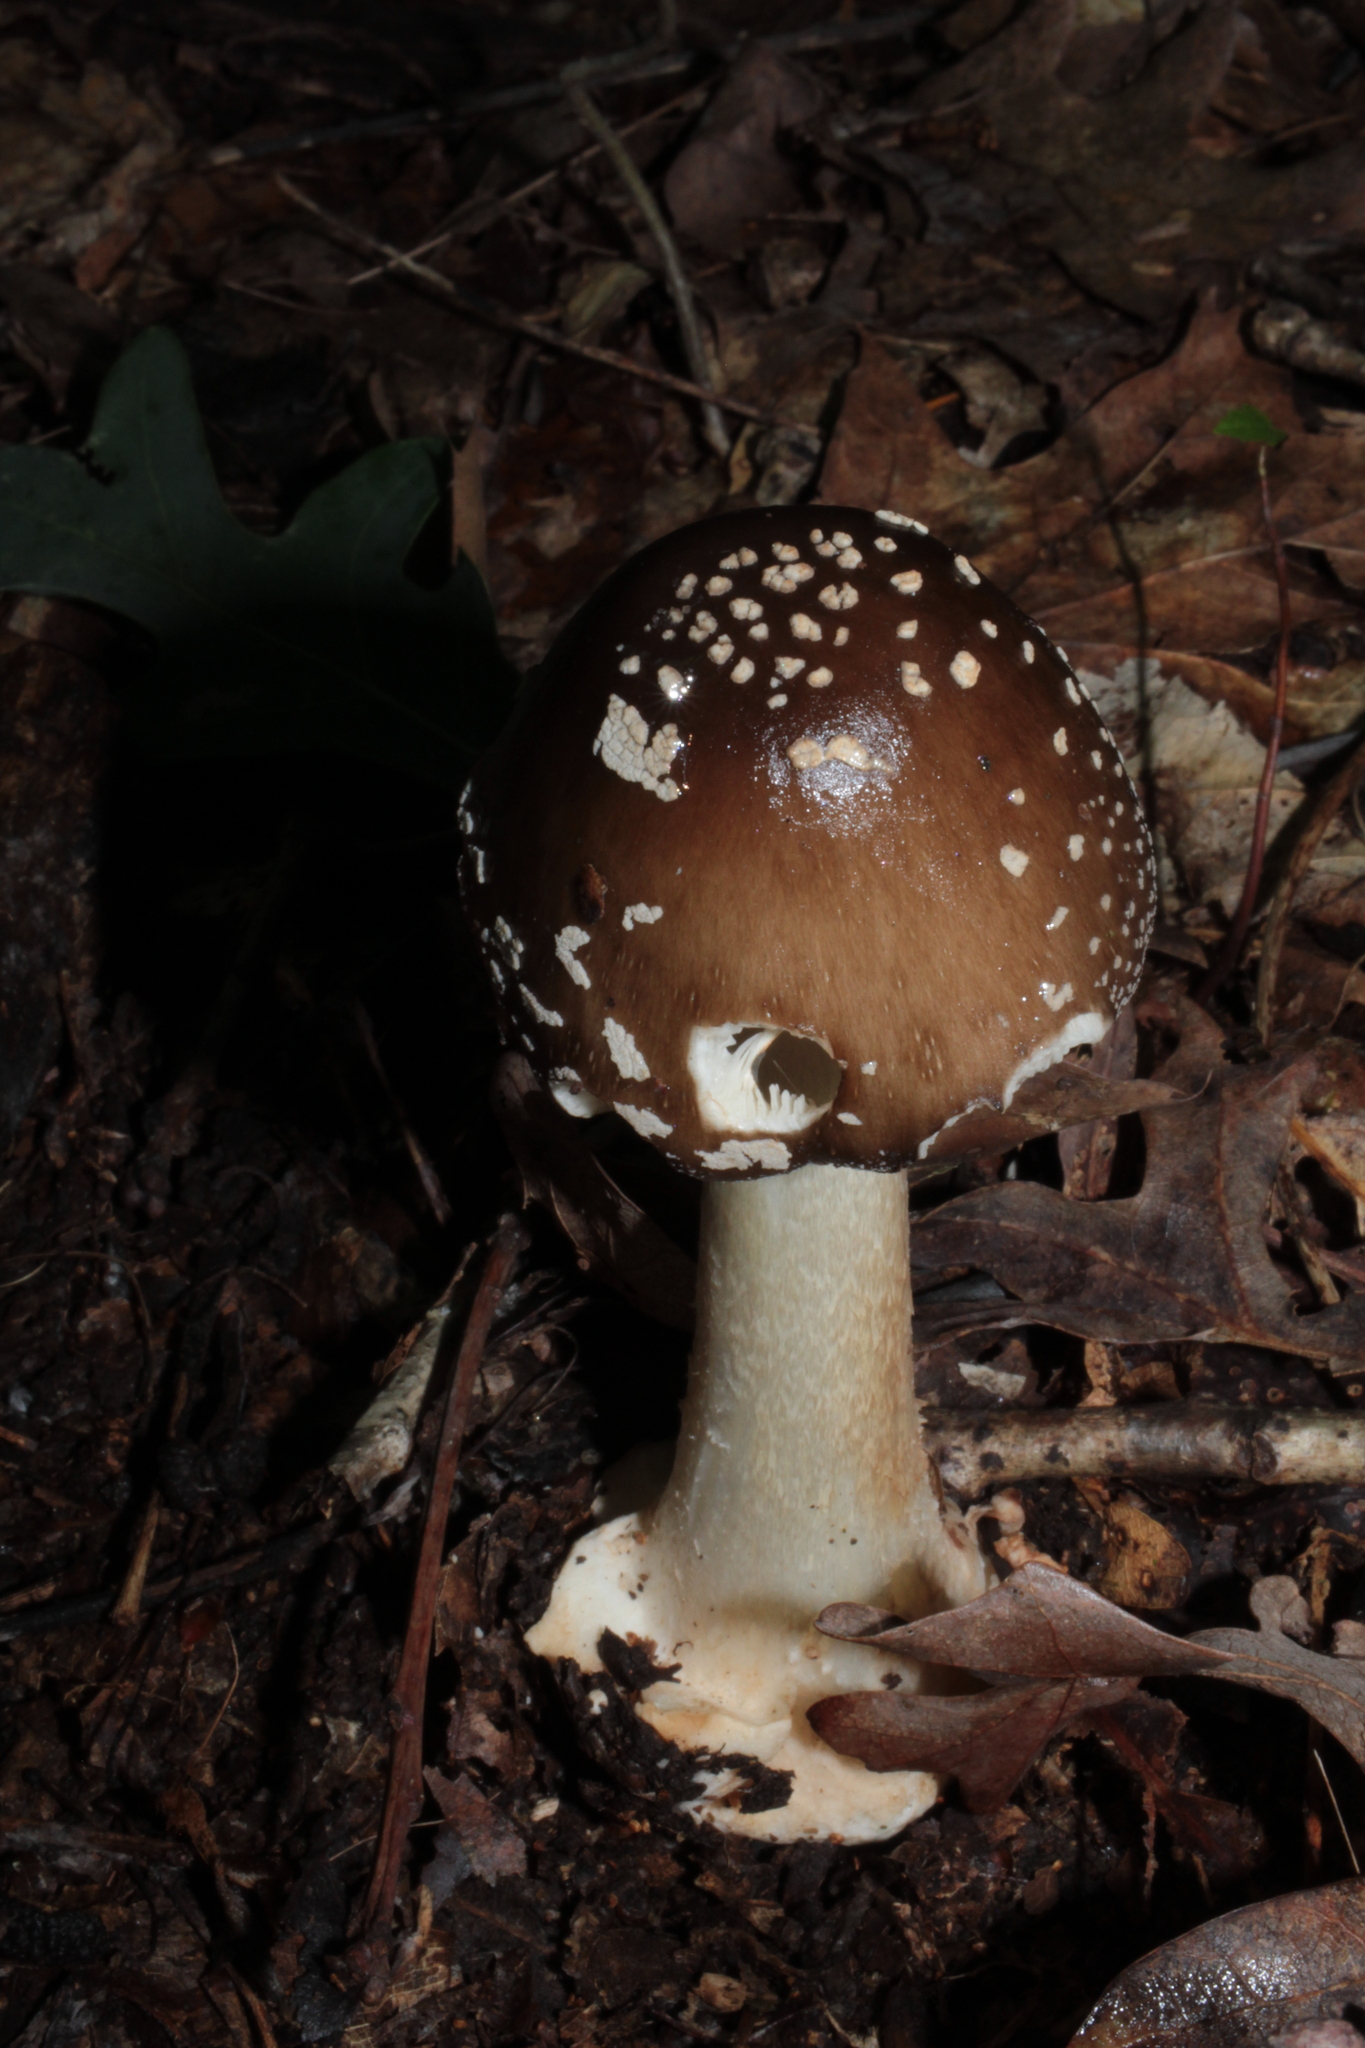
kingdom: Fungi
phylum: Basidiomycota
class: Agaricomycetes
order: Agaricales
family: Amanitaceae
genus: Amanita
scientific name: Amanita brunnescens
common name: Brown american star-footed amanita
